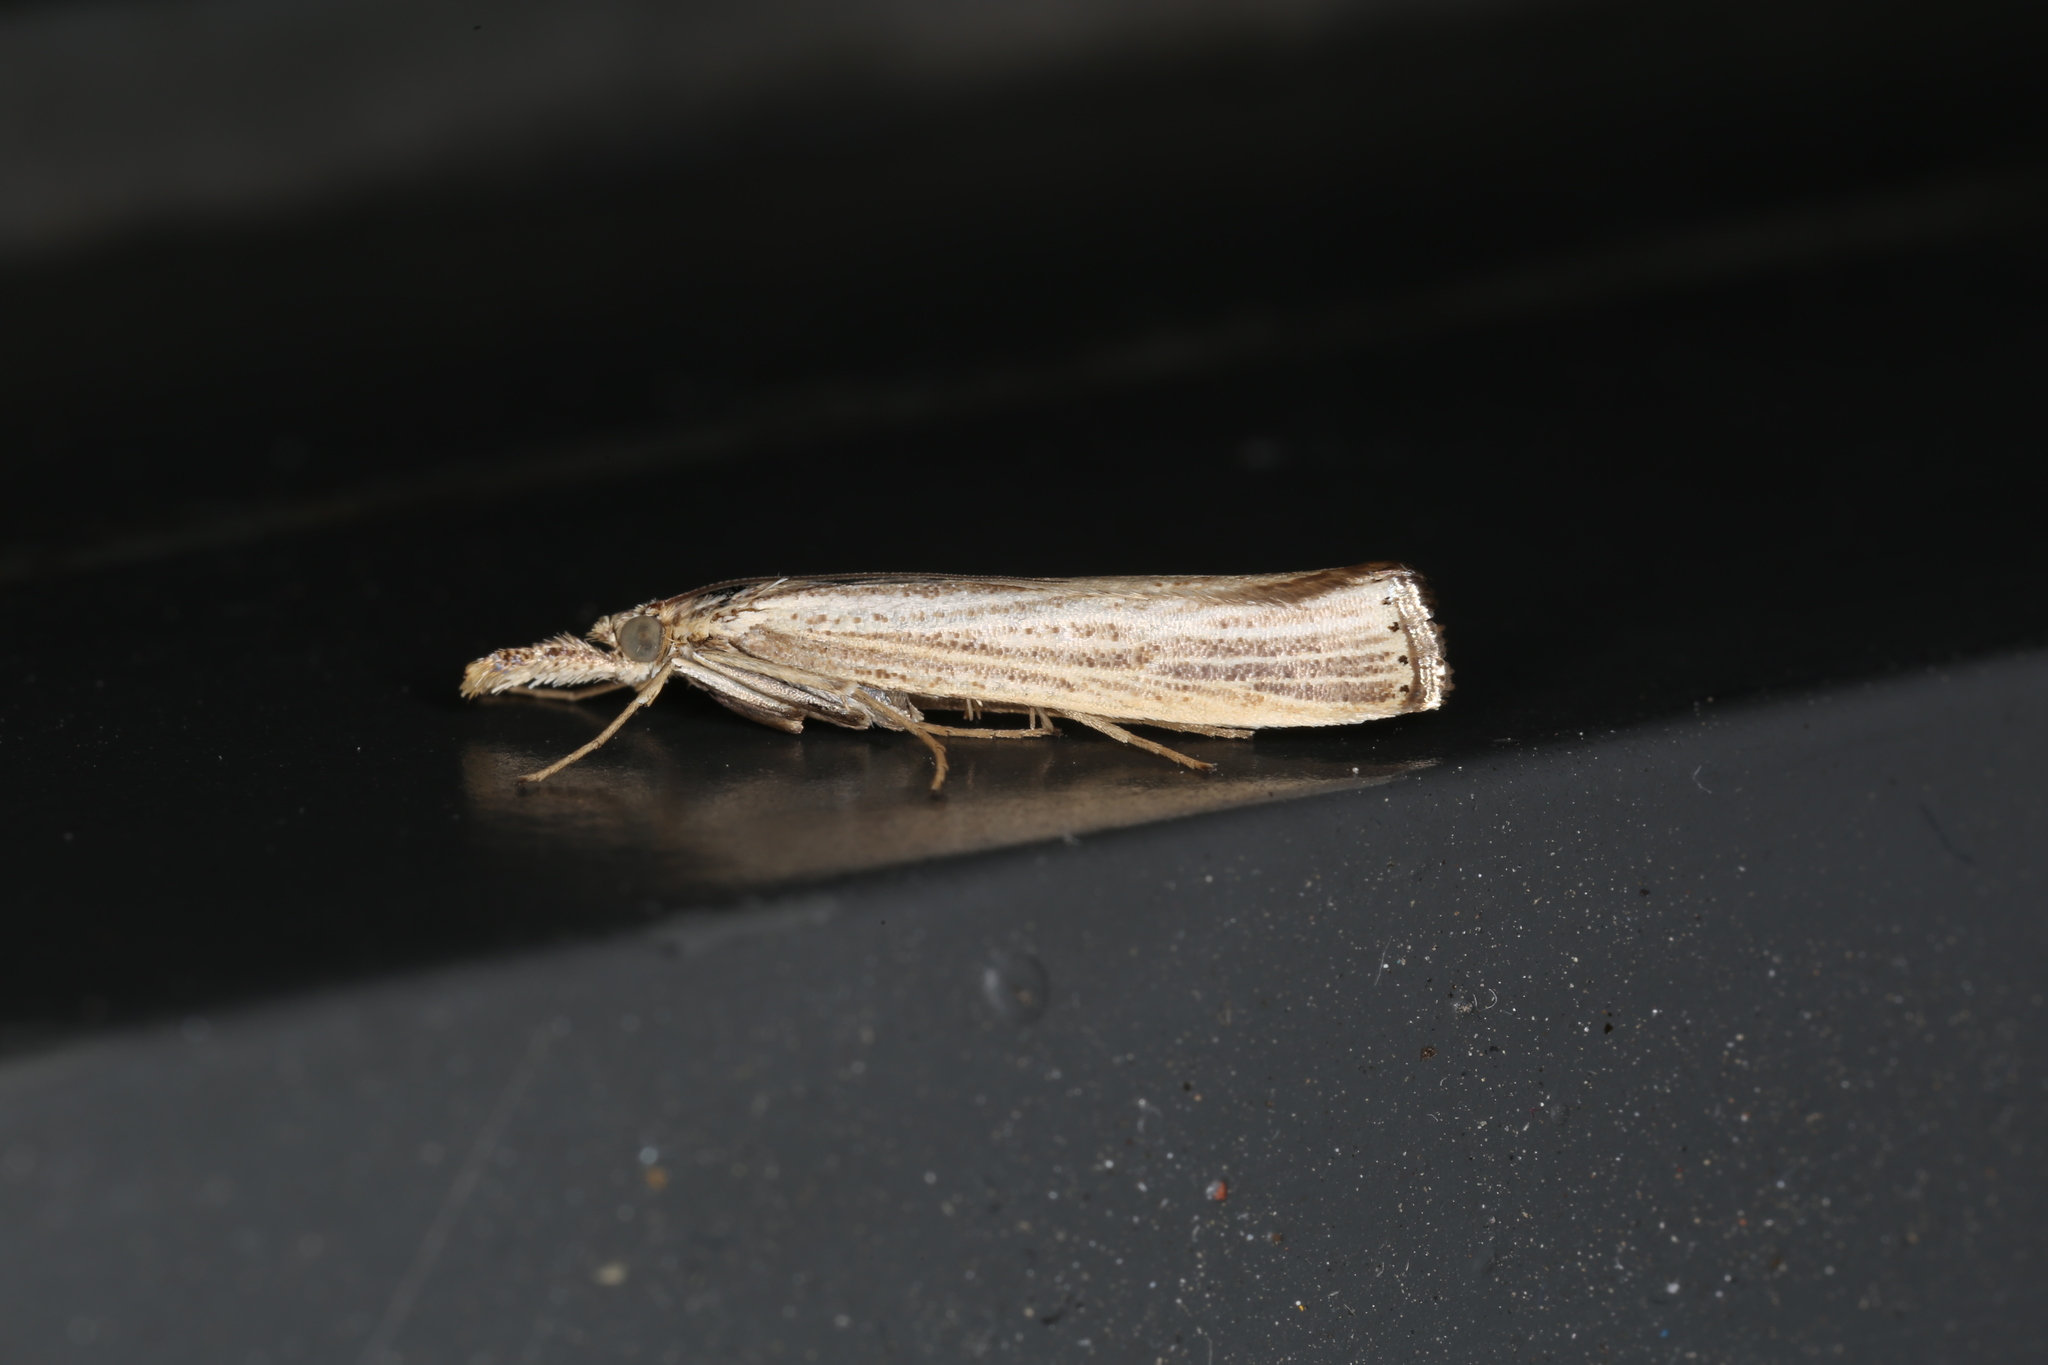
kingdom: Animalia
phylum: Arthropoda
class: Insecta
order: Lepidoptera
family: Crambidae
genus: Agriphila
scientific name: Agriphila vulgivagellus
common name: Vagabond crambus moth
